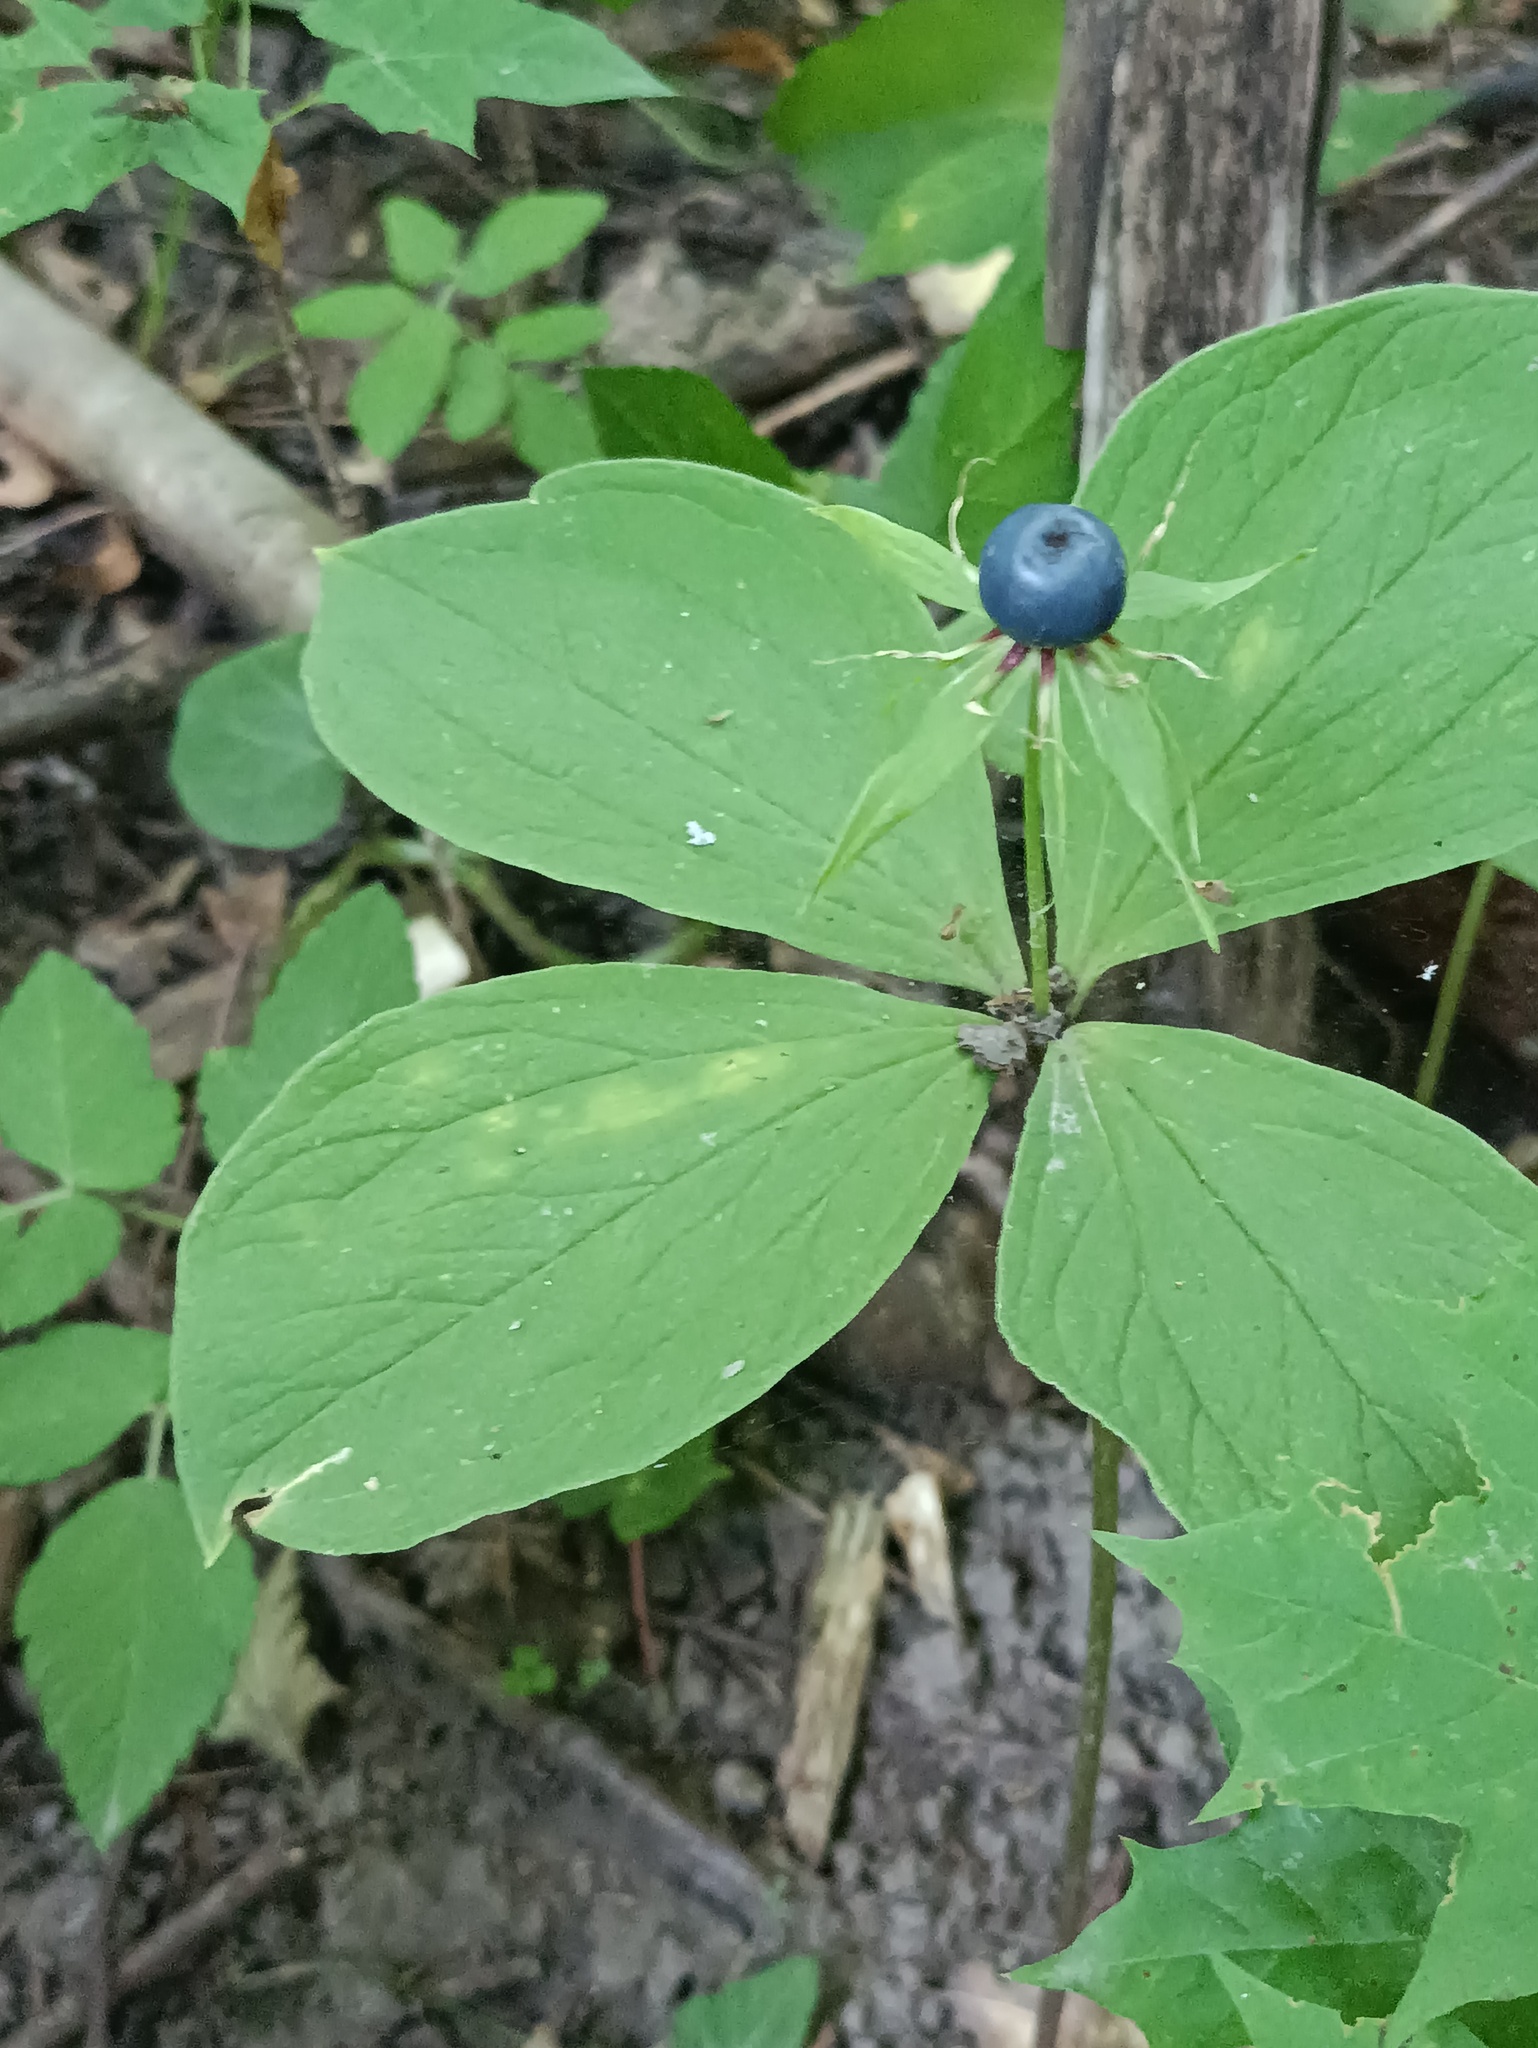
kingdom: Plantae
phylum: Tracheophyta
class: Liliopsida
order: Liliales
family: Melanthiaceae
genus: Paris
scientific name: Paris quadrifolia
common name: Herb-paris
